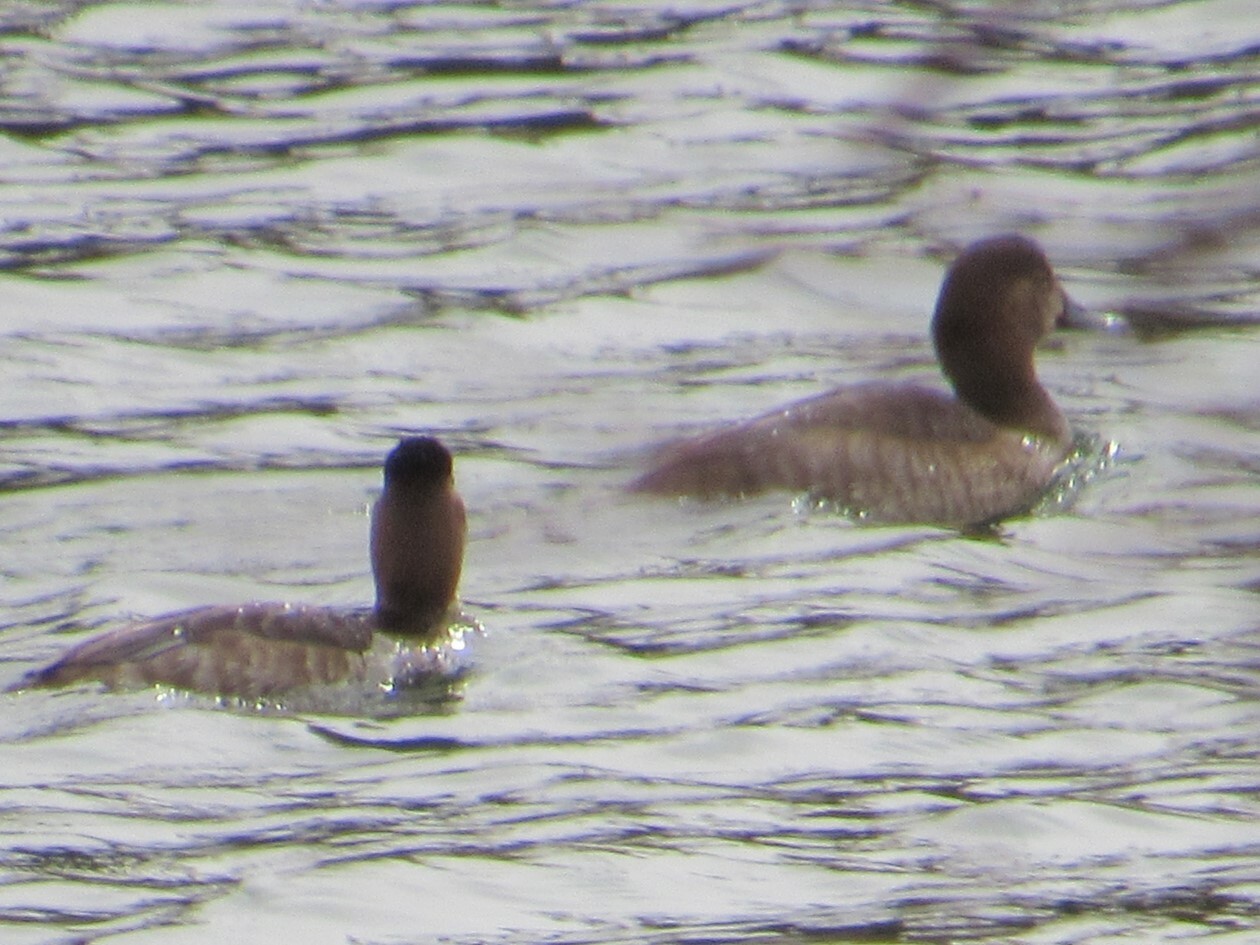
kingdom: Animalia
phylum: Chordata
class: Aves
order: Anseriformes
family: Anatidae
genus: Aythya
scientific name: Aythya americana
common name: Redhead
